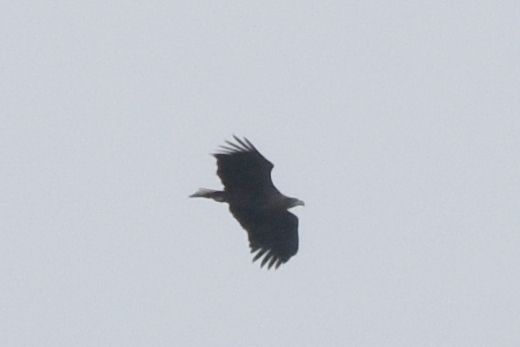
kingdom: Animalia
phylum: Chordata
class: Aves
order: Accipitriformes
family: Accipitridae
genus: Haliaeetus
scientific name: Haliaeetus albicilla
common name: White-tailed eagle
